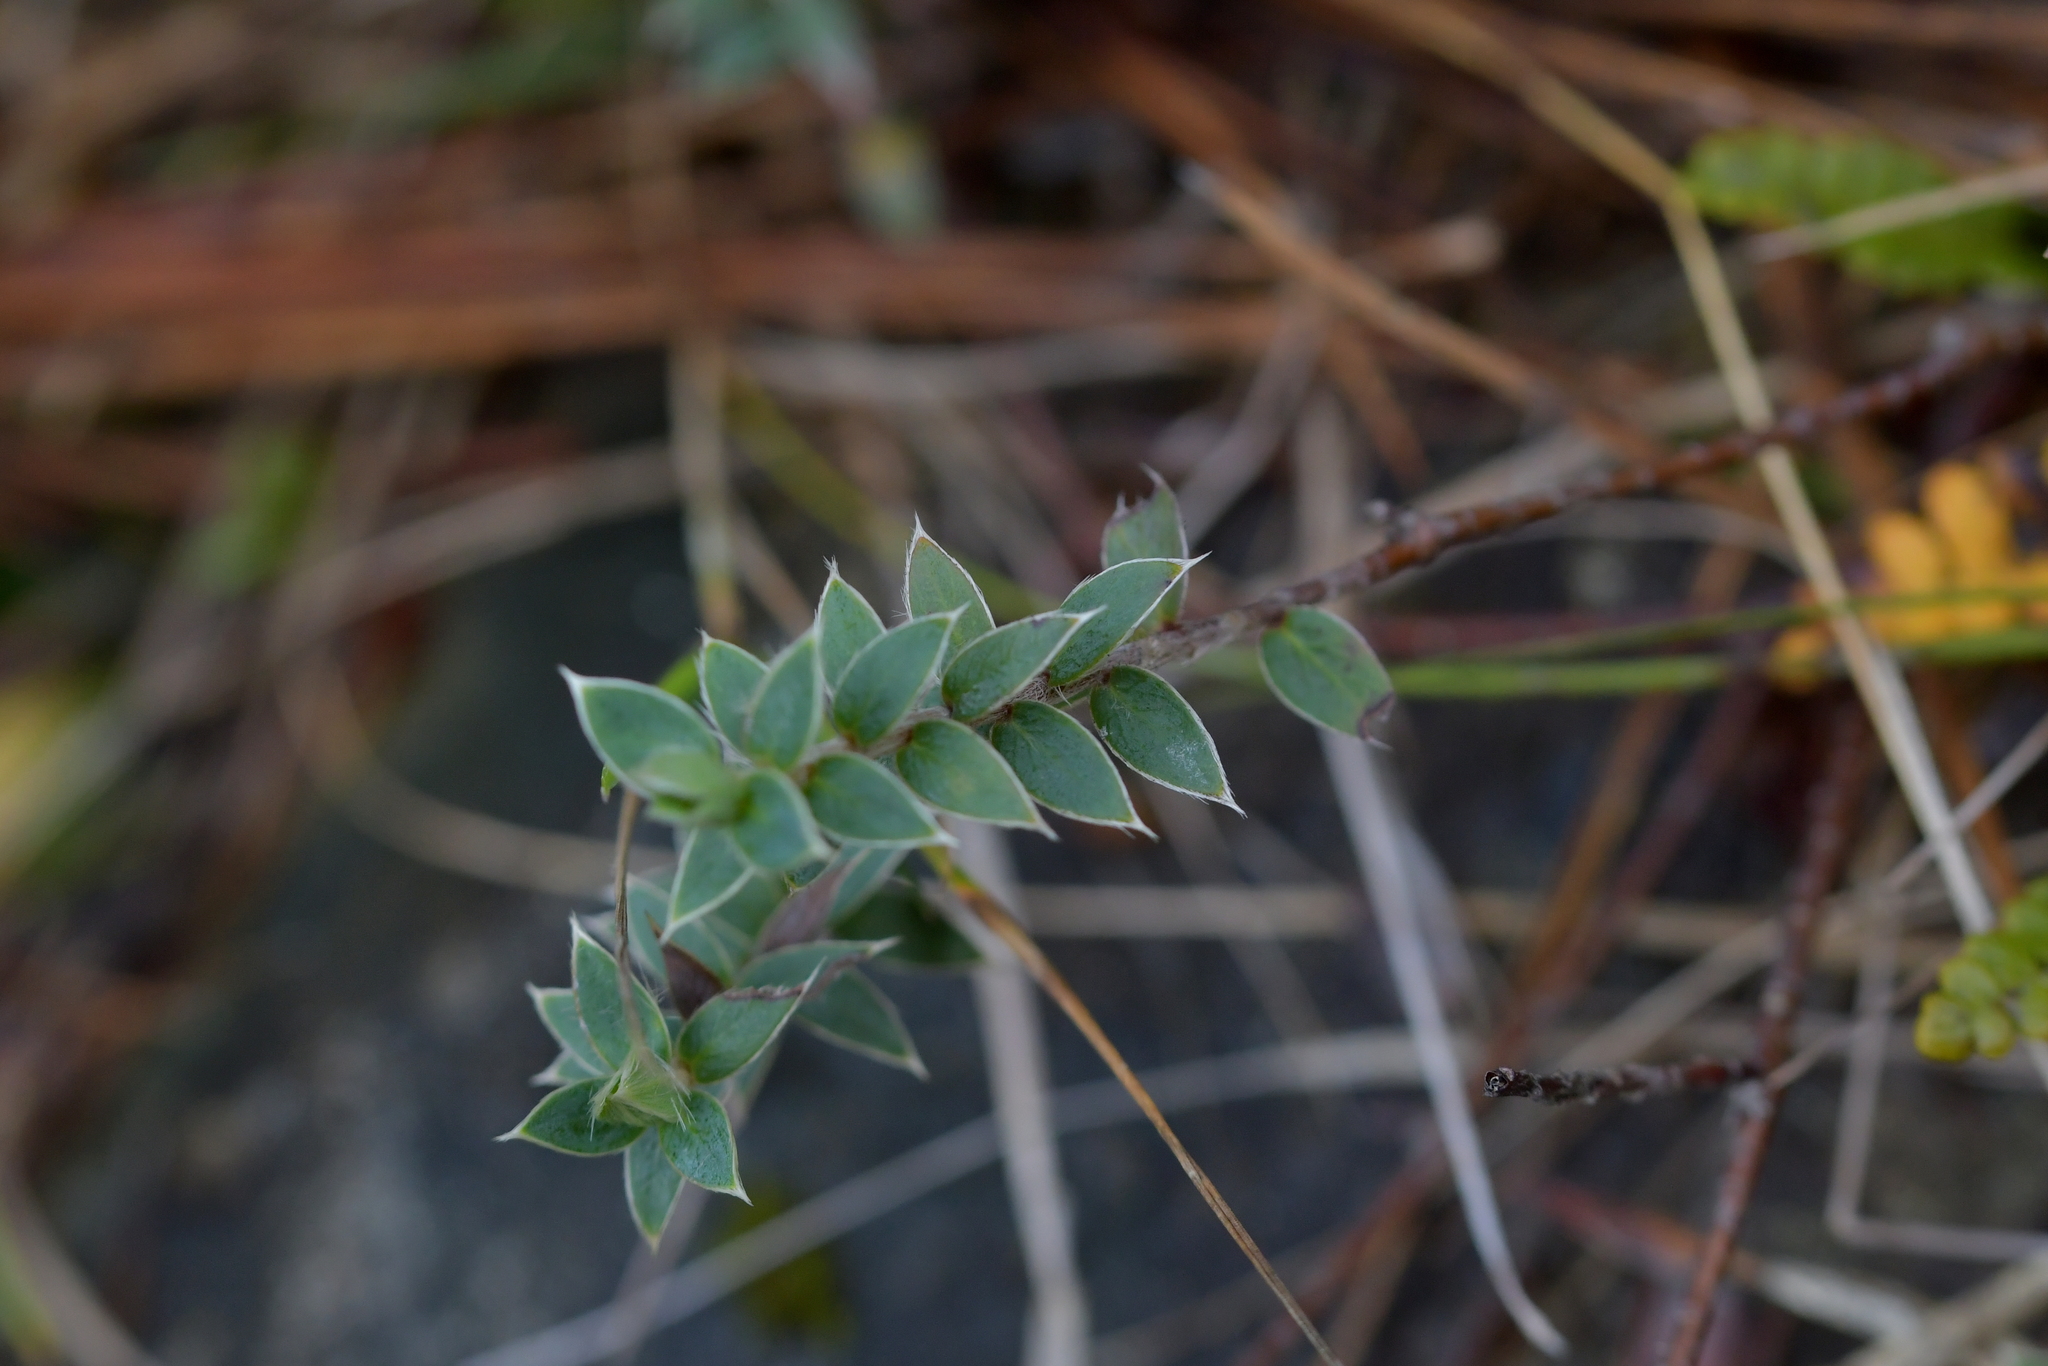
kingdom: Plantae
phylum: Tracheophyta
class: Magnoliopsida
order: Malvales
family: Thymelaeaceae
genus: Pimelea
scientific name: Pimelea pseudolyallii
